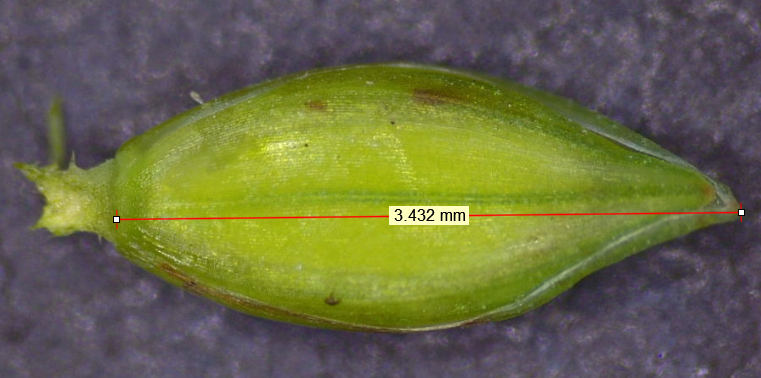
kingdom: Plantae
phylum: Tracheophyta
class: Liliopsida
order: Poales
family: Poaceae
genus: Paspalum
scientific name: Paspalum acuminatum
